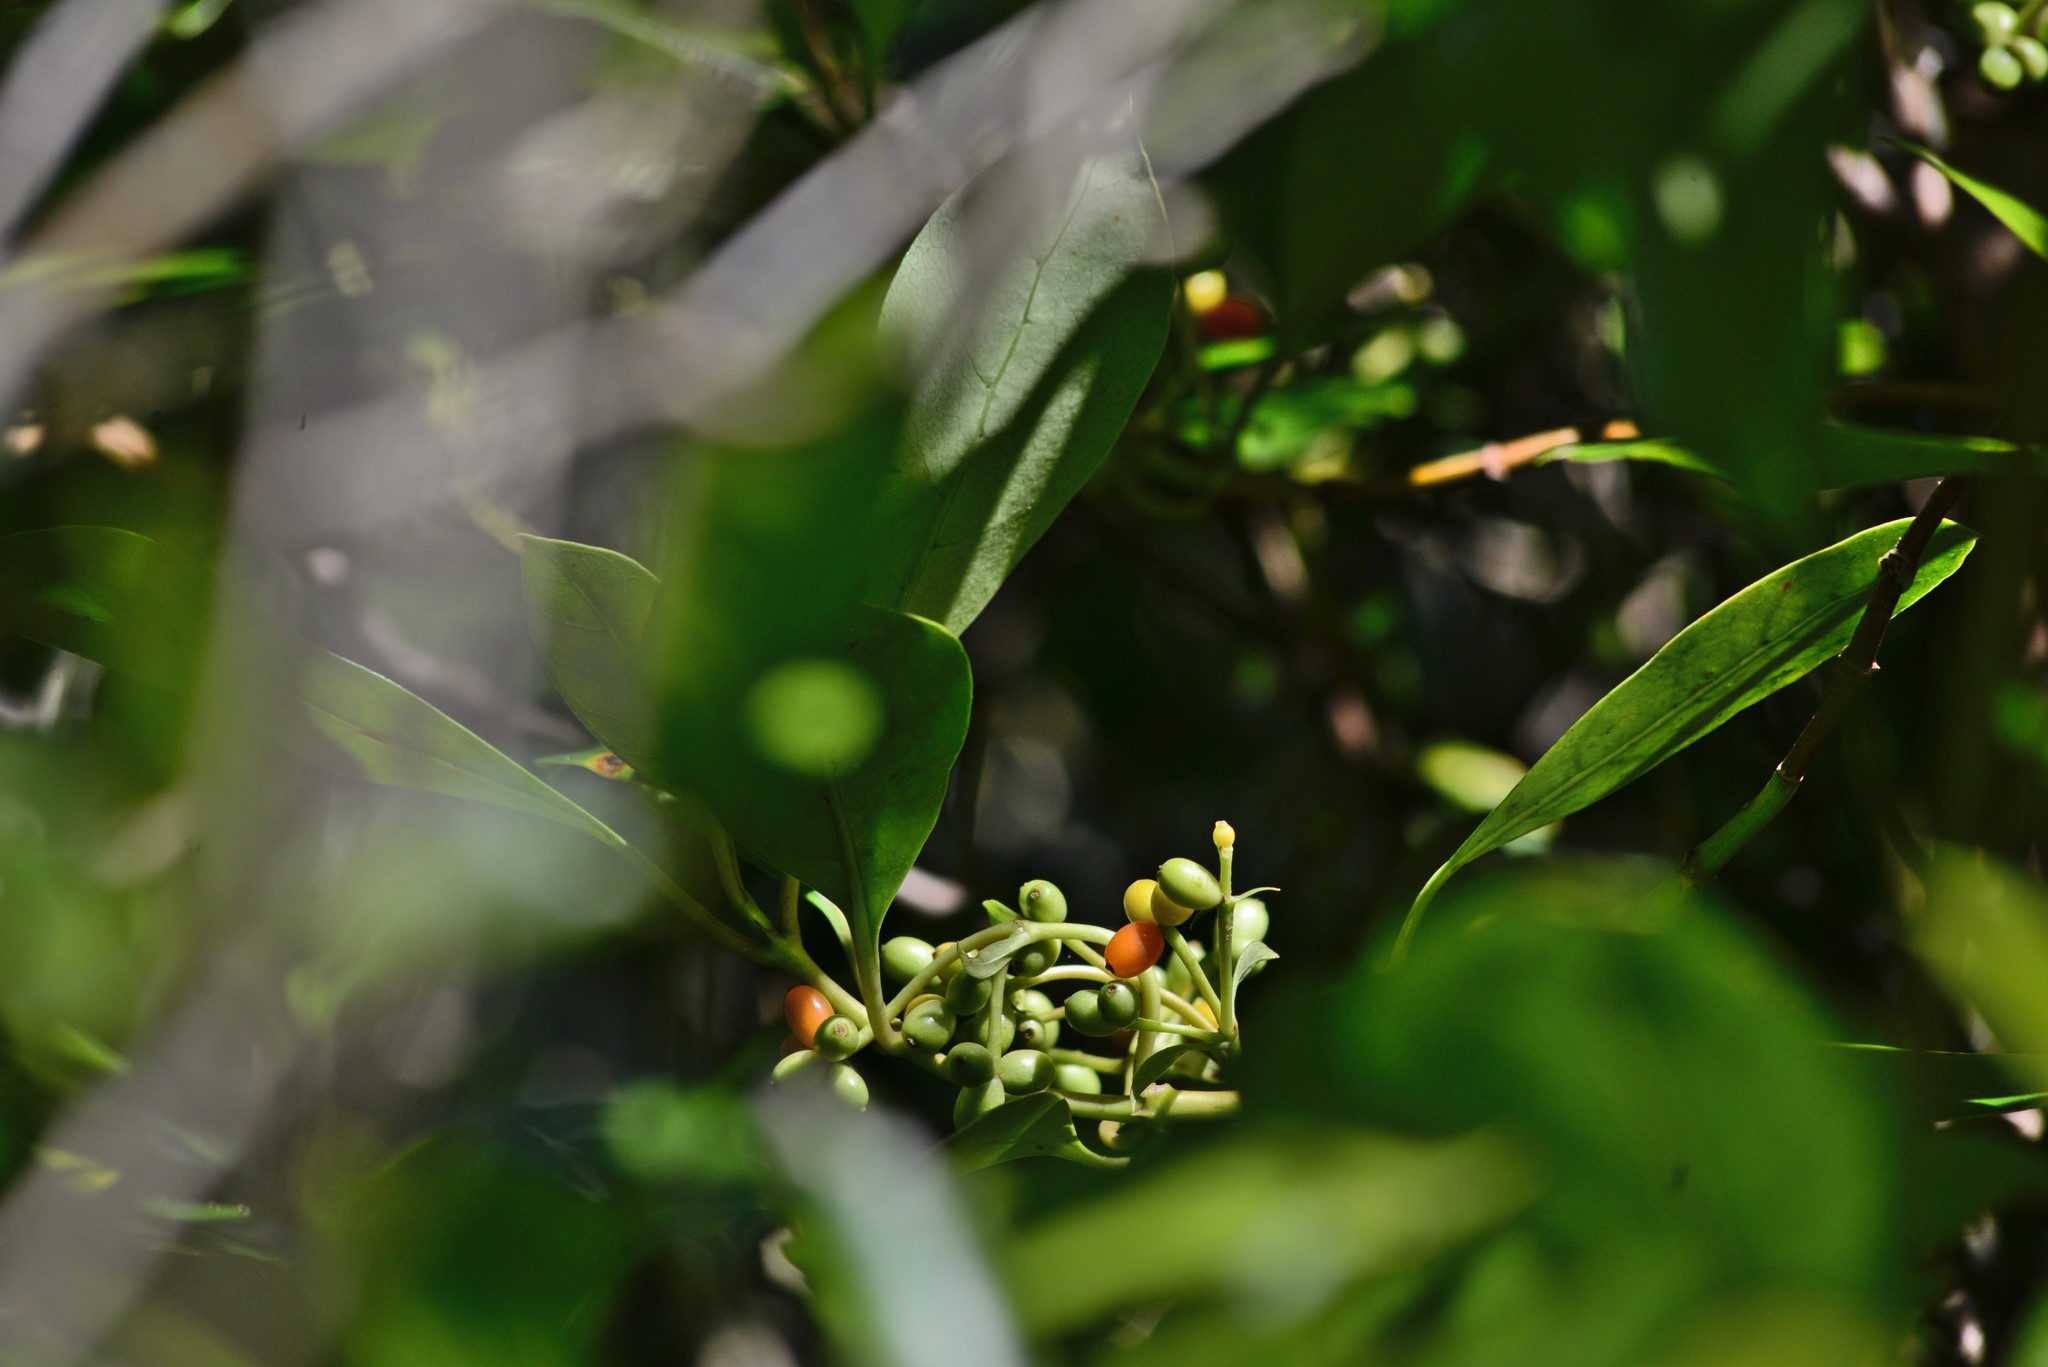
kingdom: Plantae
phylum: Tracheophyta
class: Magnoliopsida
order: Gentianales
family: Rubiaceae
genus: Coprosma
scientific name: Coprosma lucida
